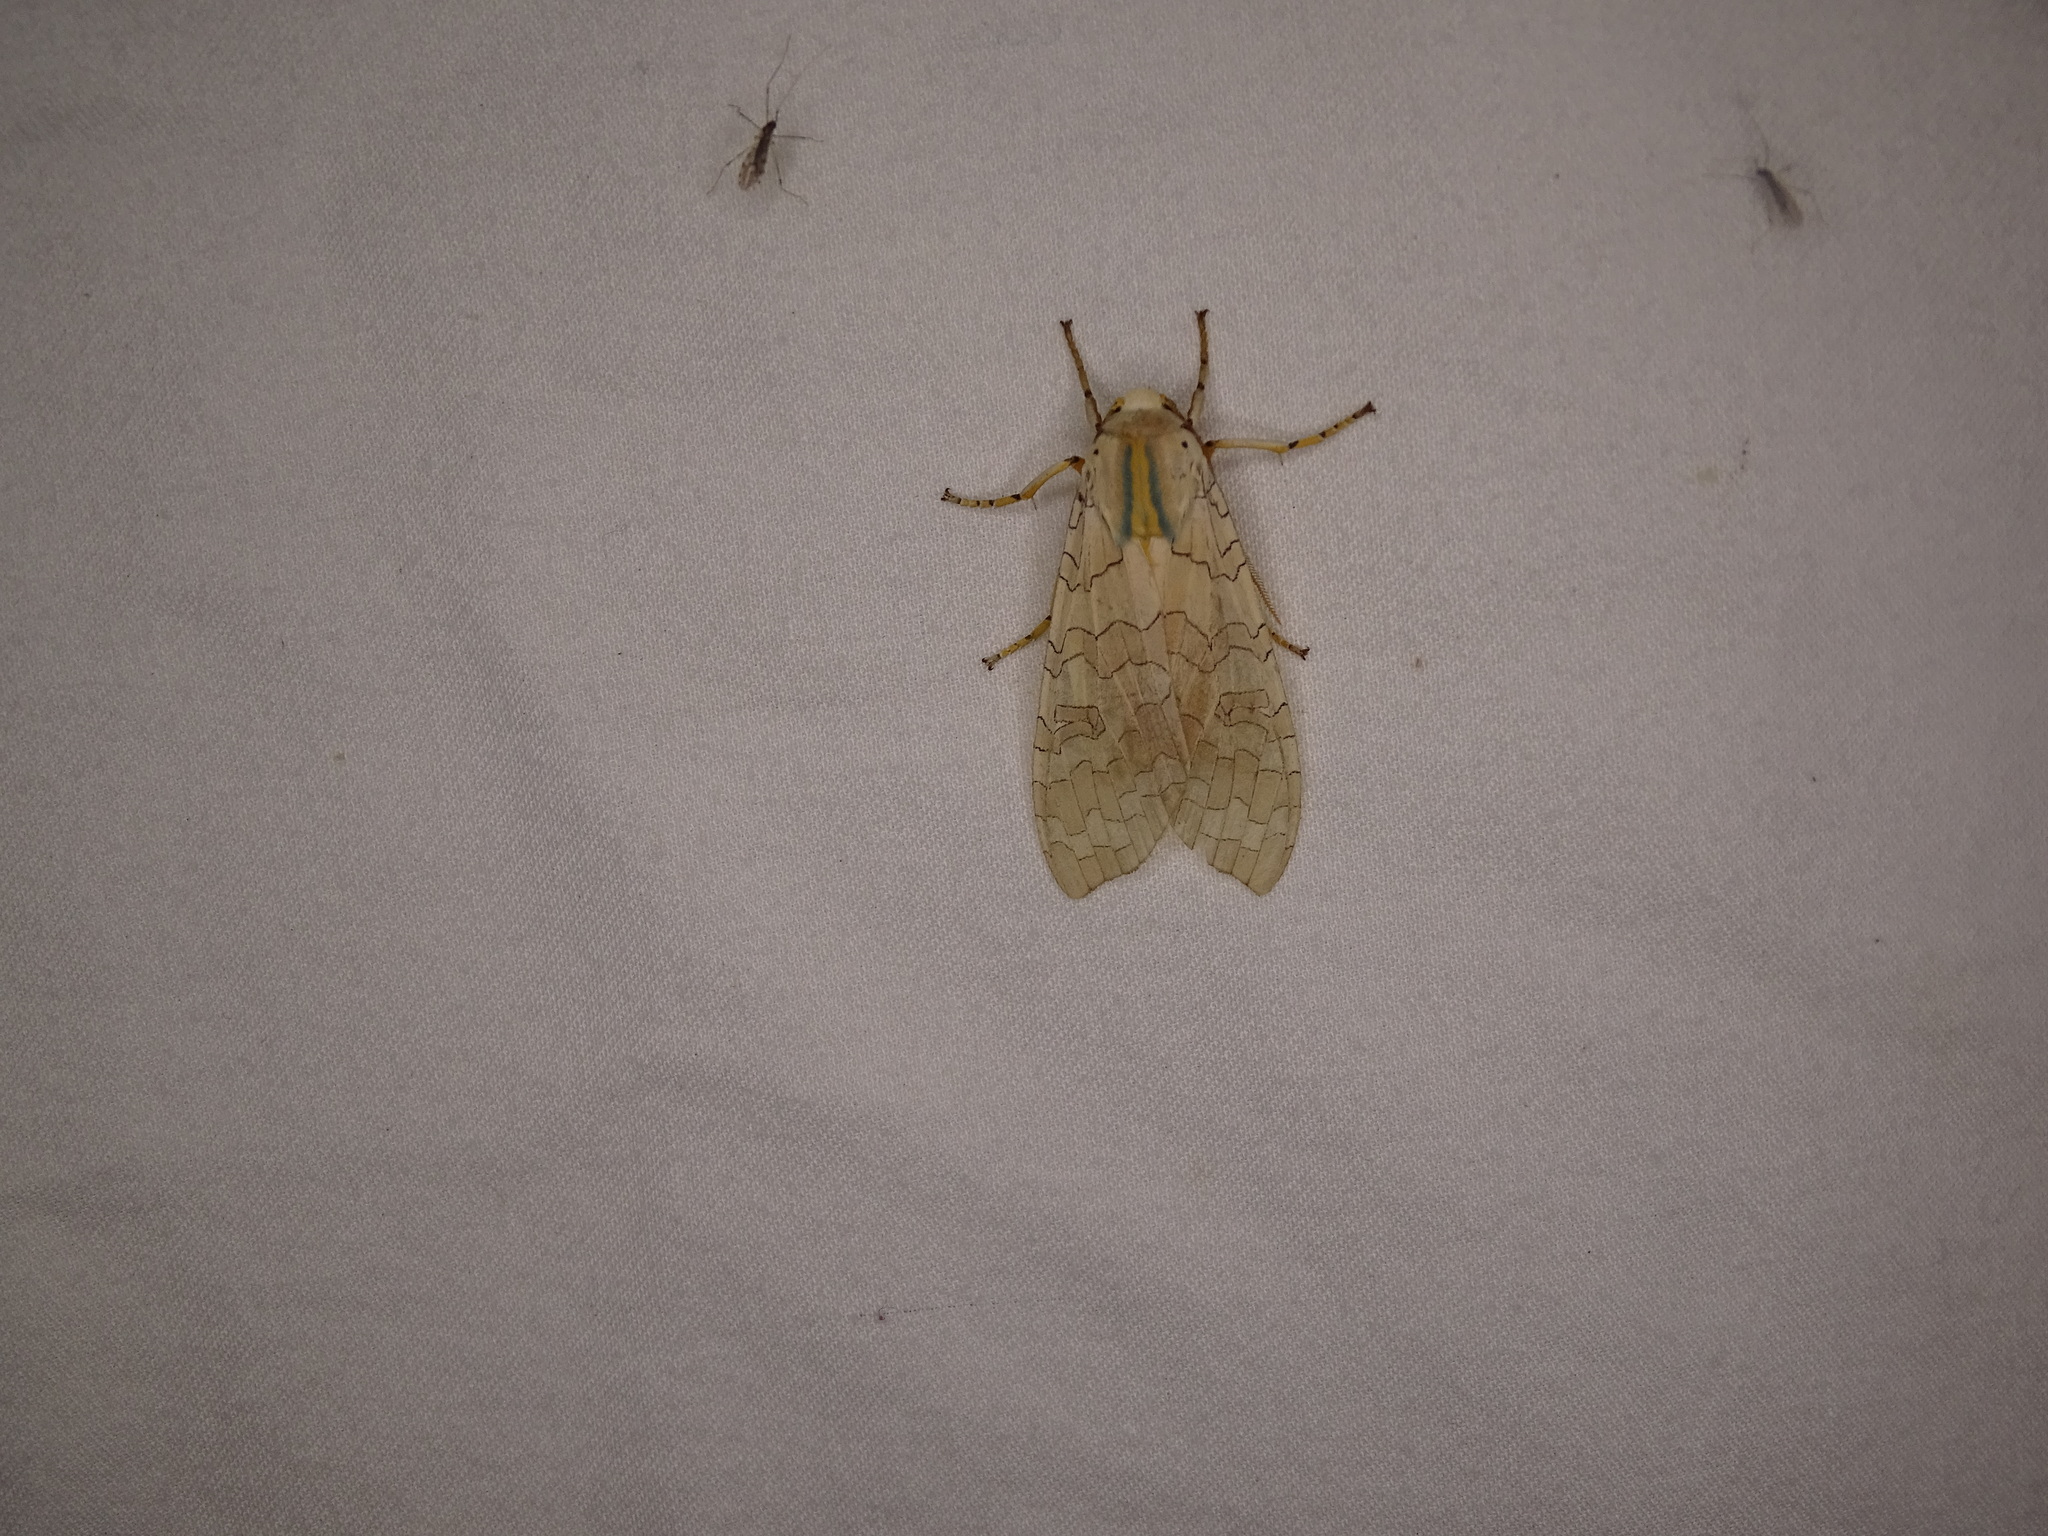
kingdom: Animalia
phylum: Arthropoda
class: Insecta
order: Lepidoptera
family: Erebidae
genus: Halysidota
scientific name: Halysidota
